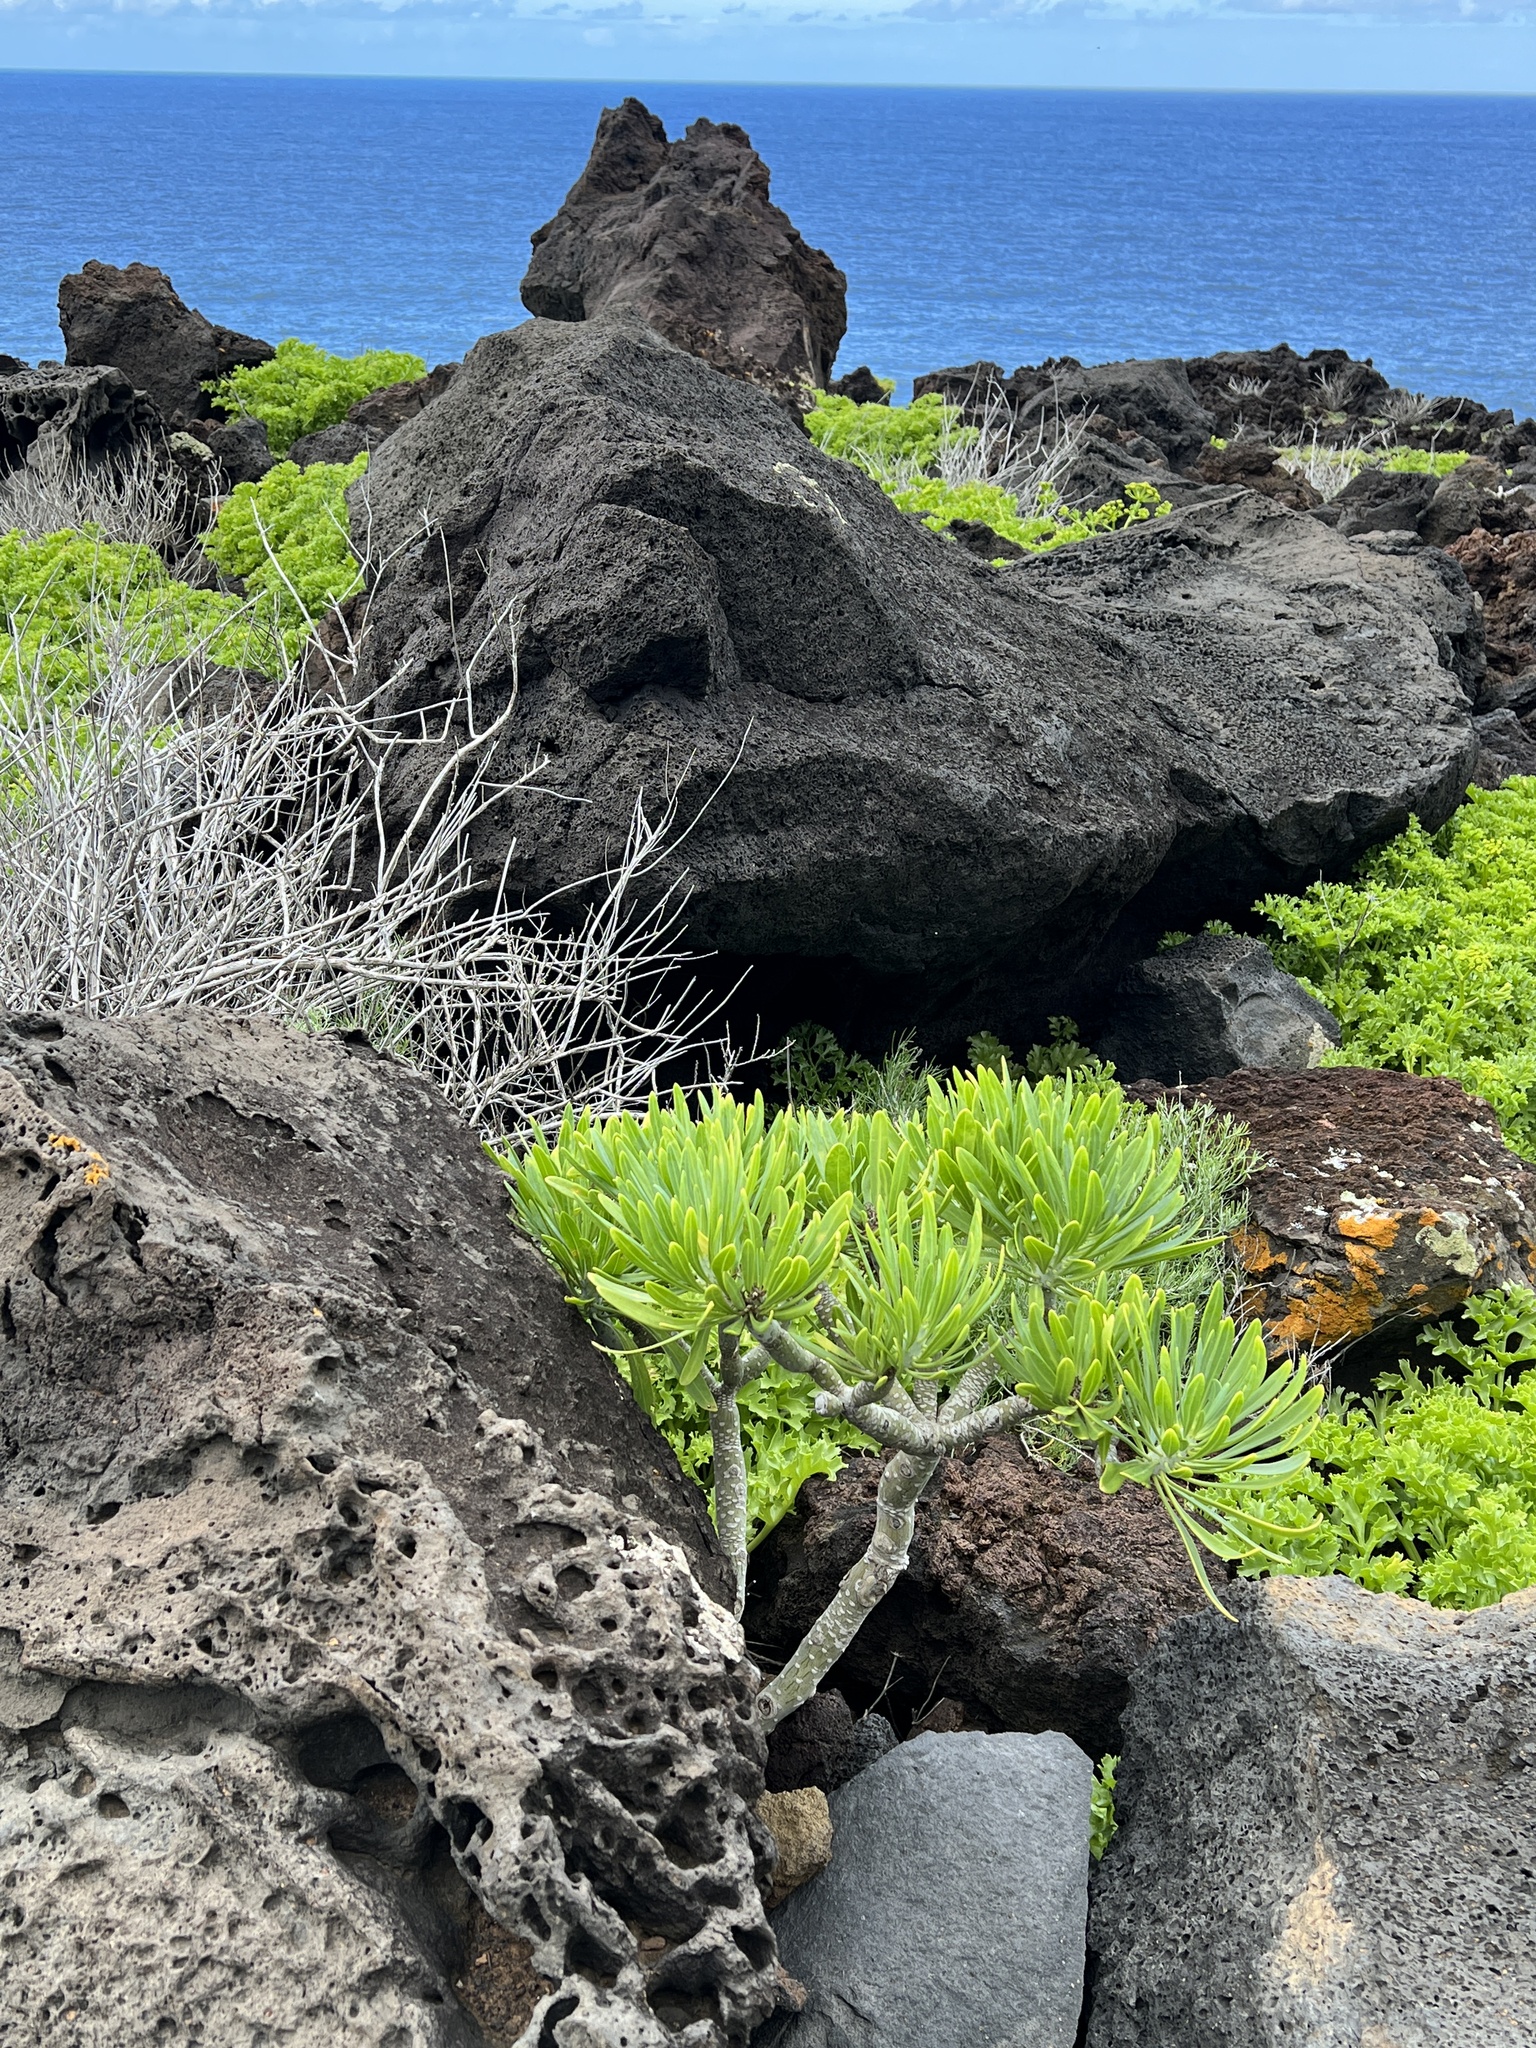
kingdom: Plantae
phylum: Tracheophyta
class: Magnoliopsida
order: Asterales
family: Asteraceae
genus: Kleinia
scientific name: Kleinia neriifolia
